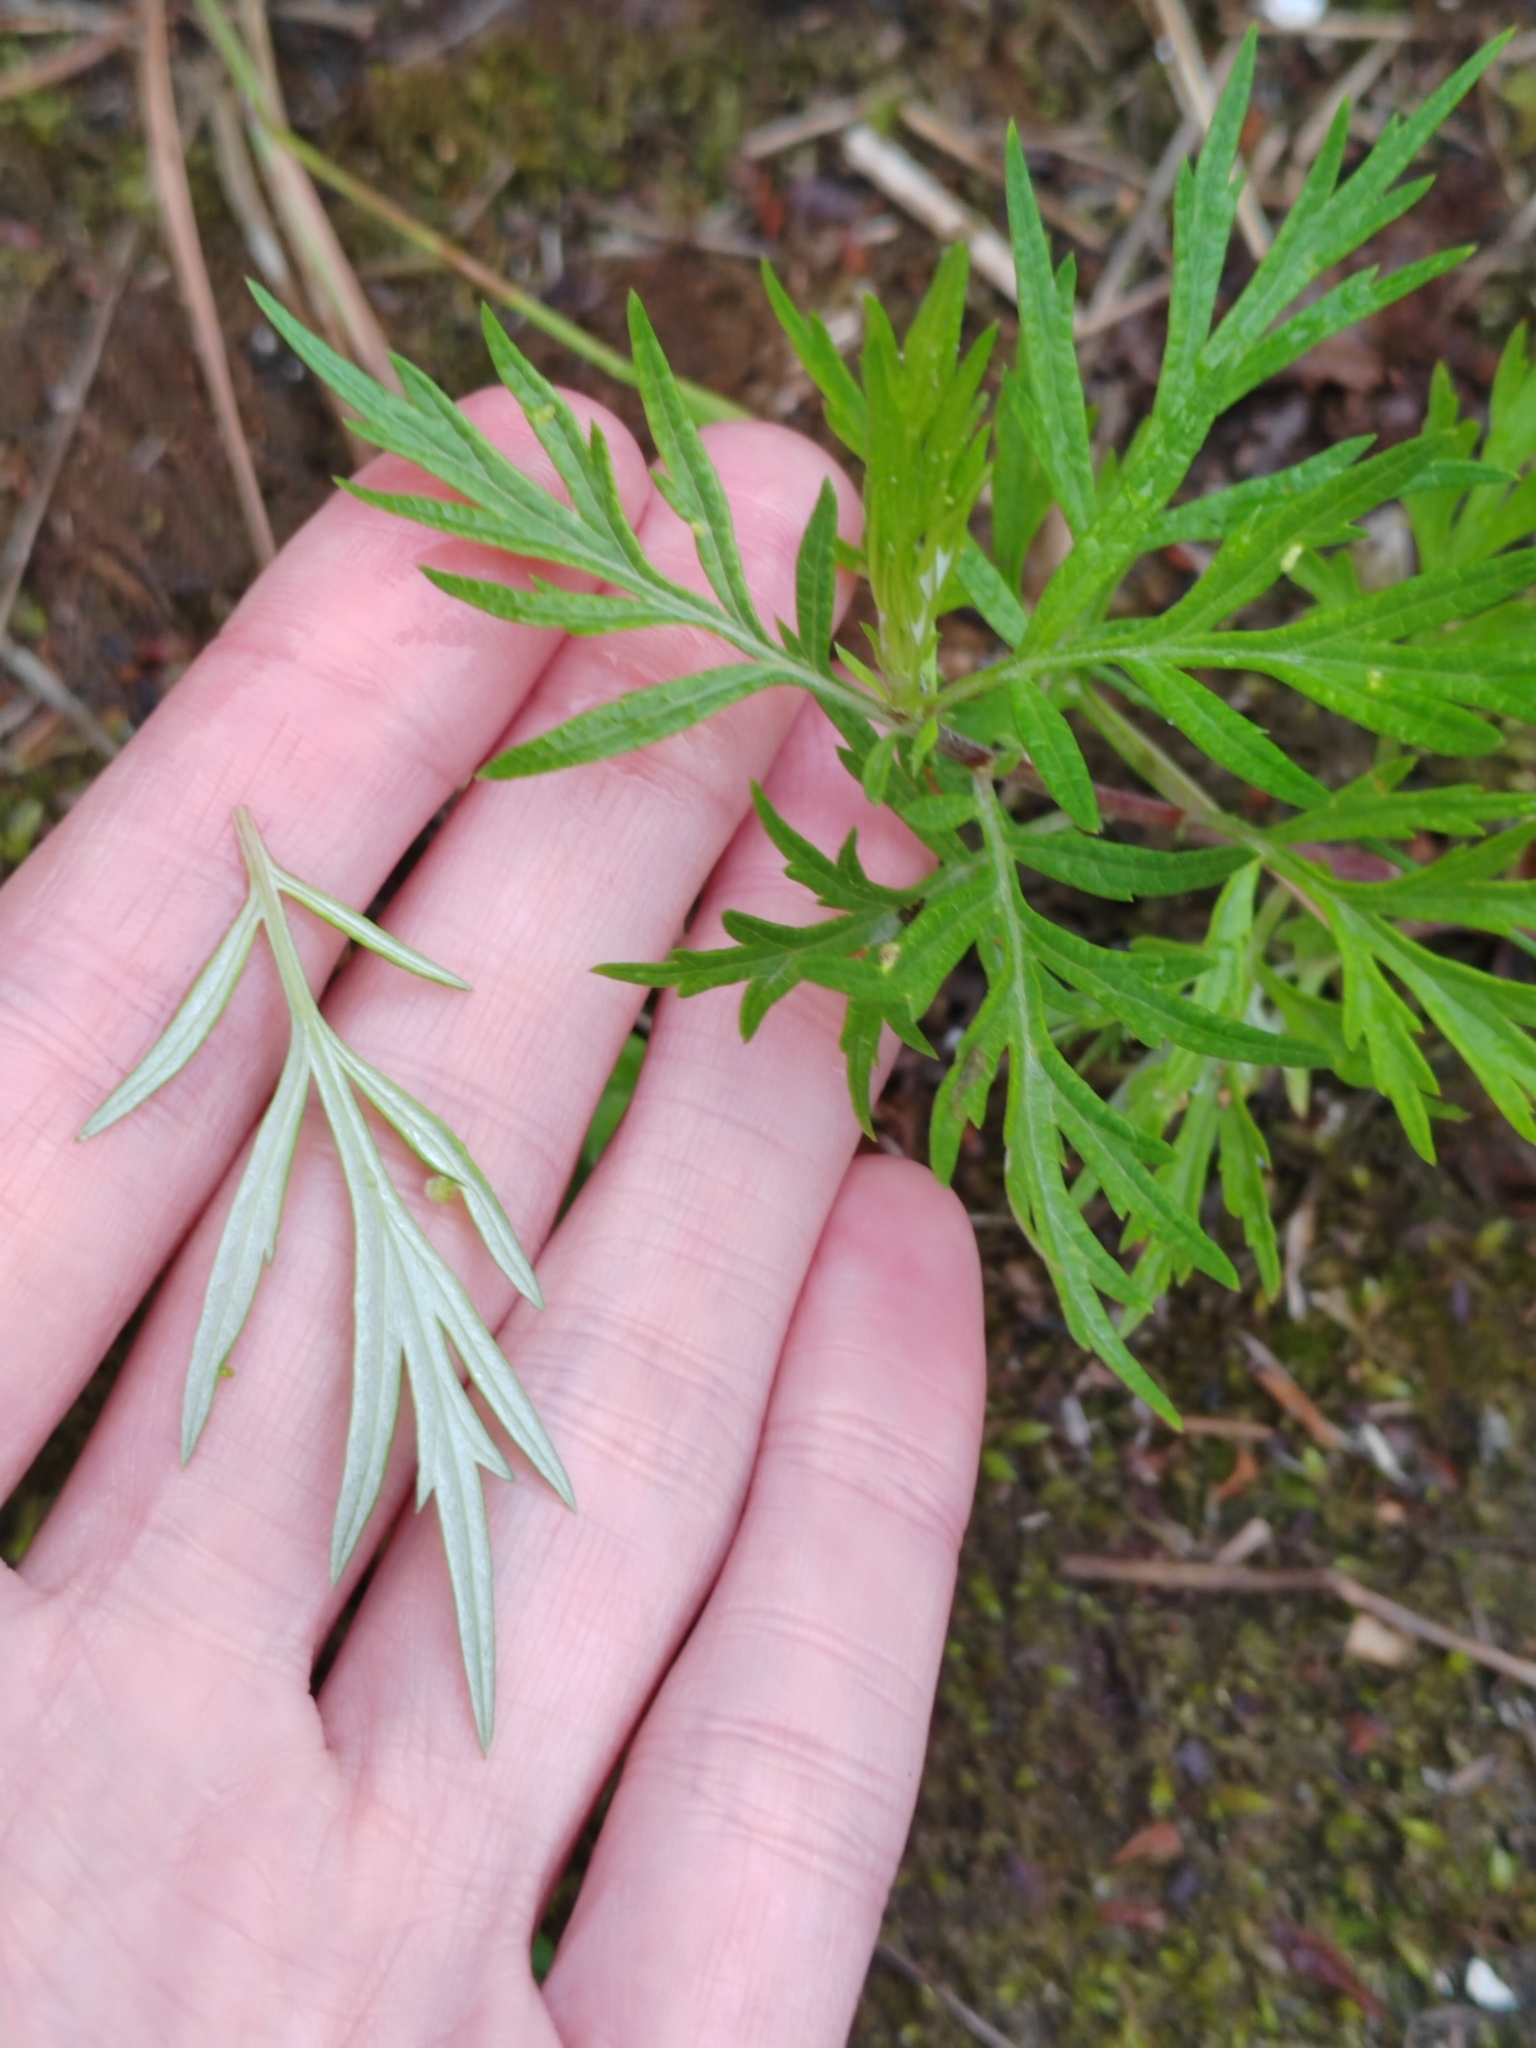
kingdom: Plantae
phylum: Tracheophyta
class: Magnoliopsida
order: Asterales
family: Asteraceae
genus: Artemisia
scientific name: Artemisia vulgaris
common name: Mugwort
